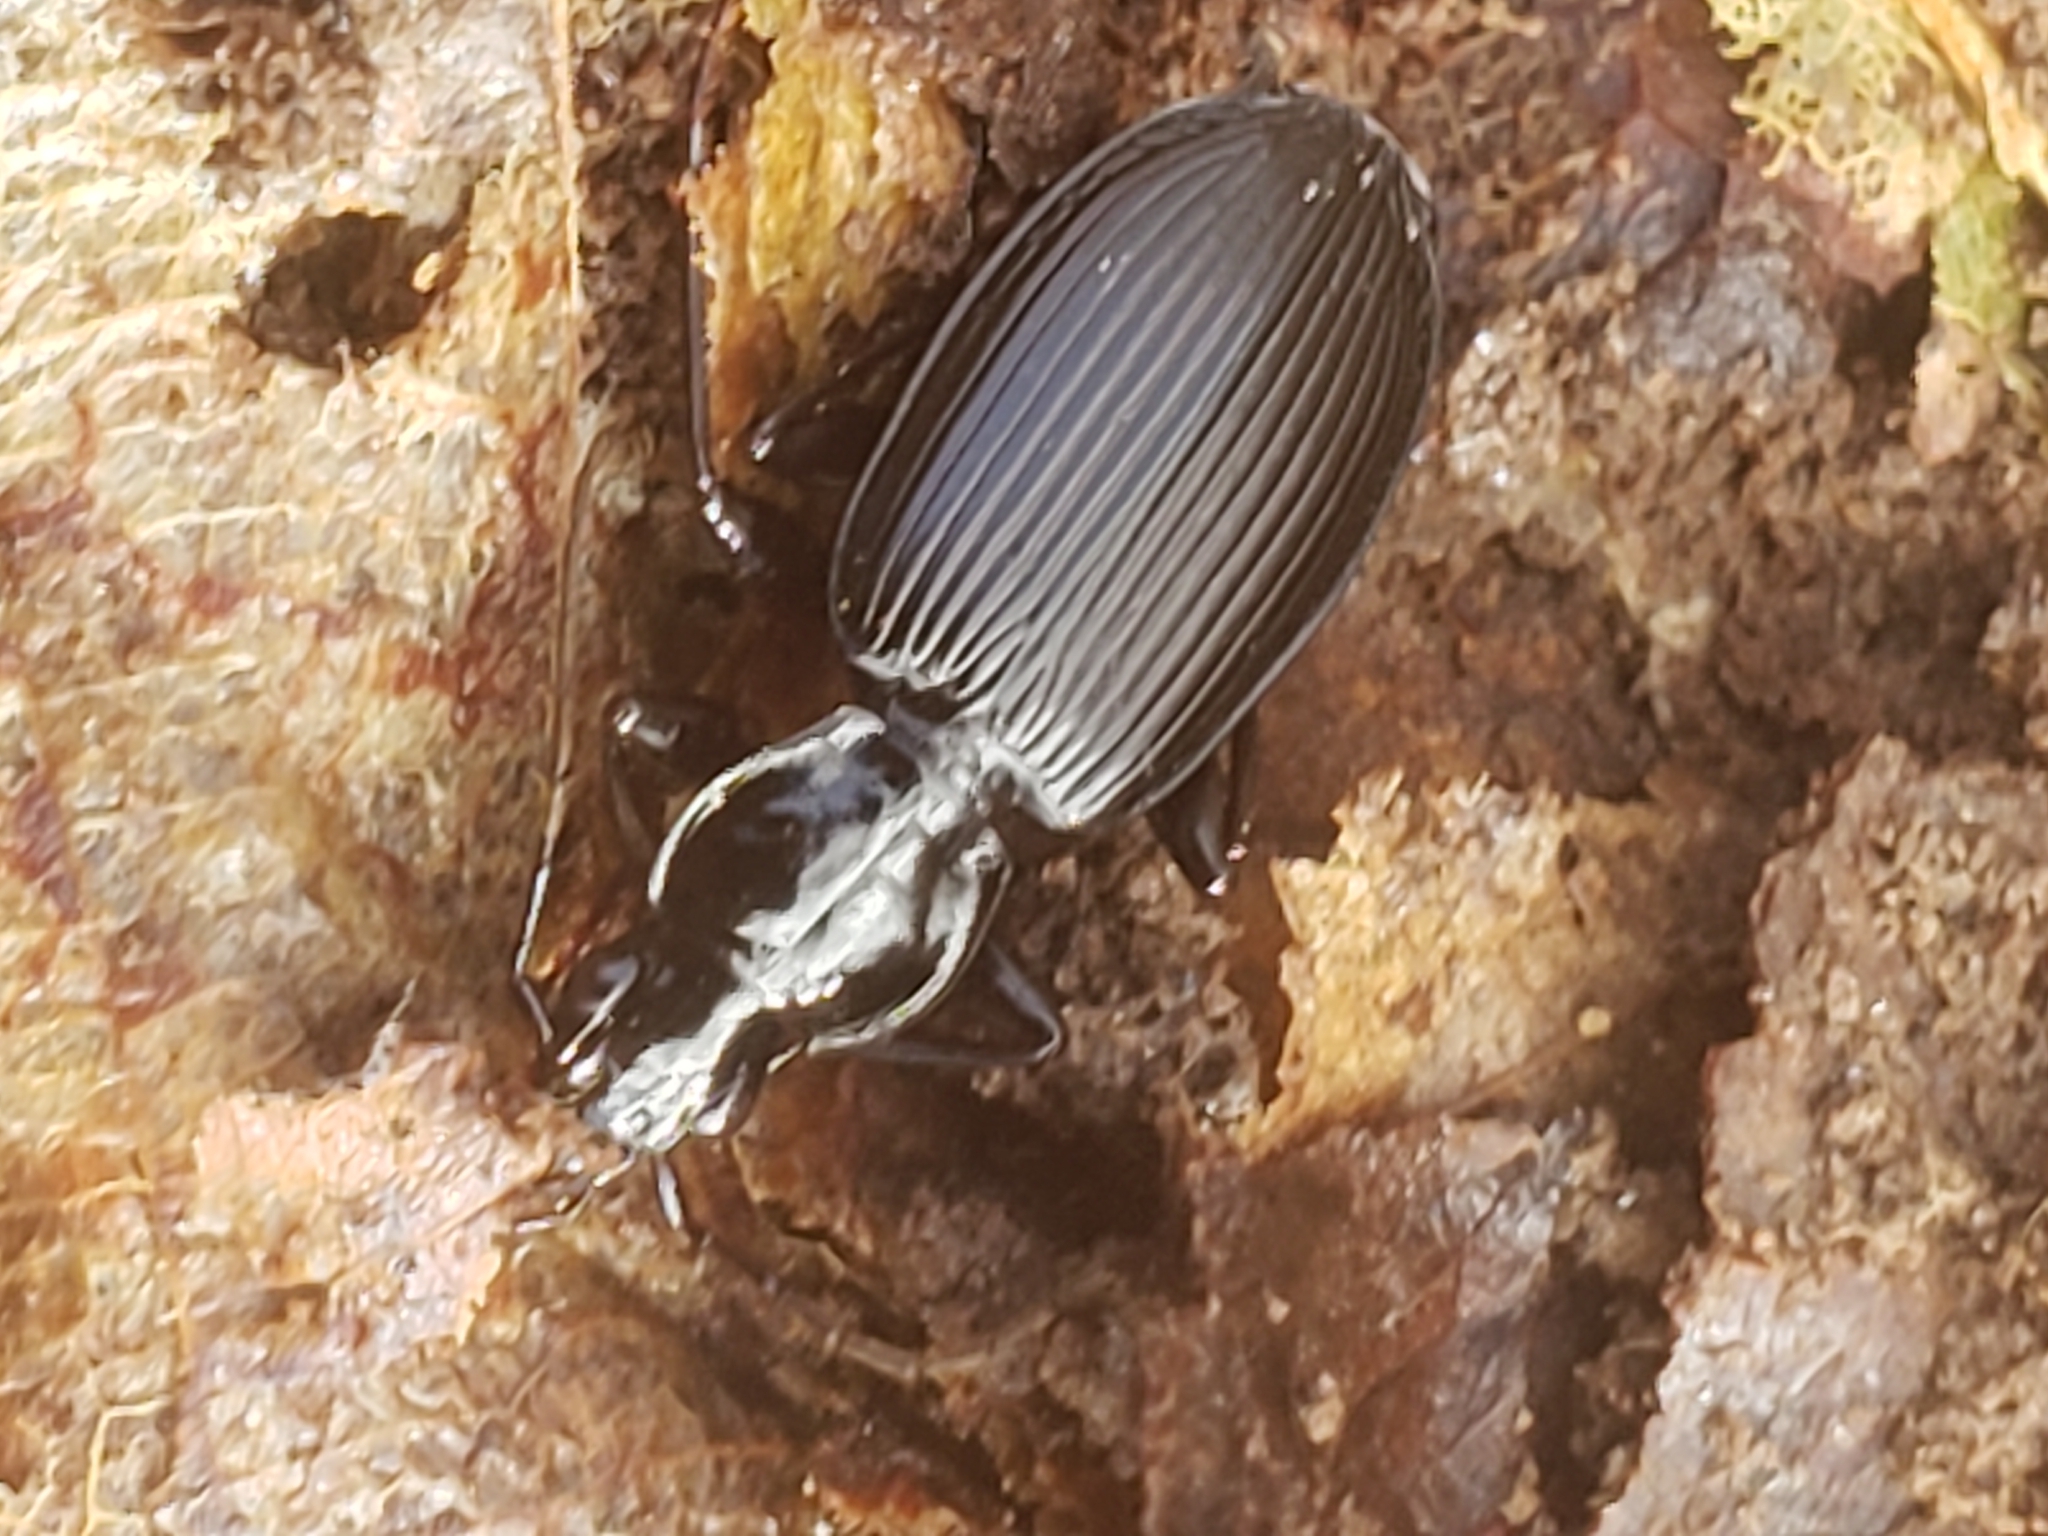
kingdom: Animalia
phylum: Arthropoda
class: Insecta
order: Coleoptera
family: Carabidae
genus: Platynus
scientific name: Platynus decentis
